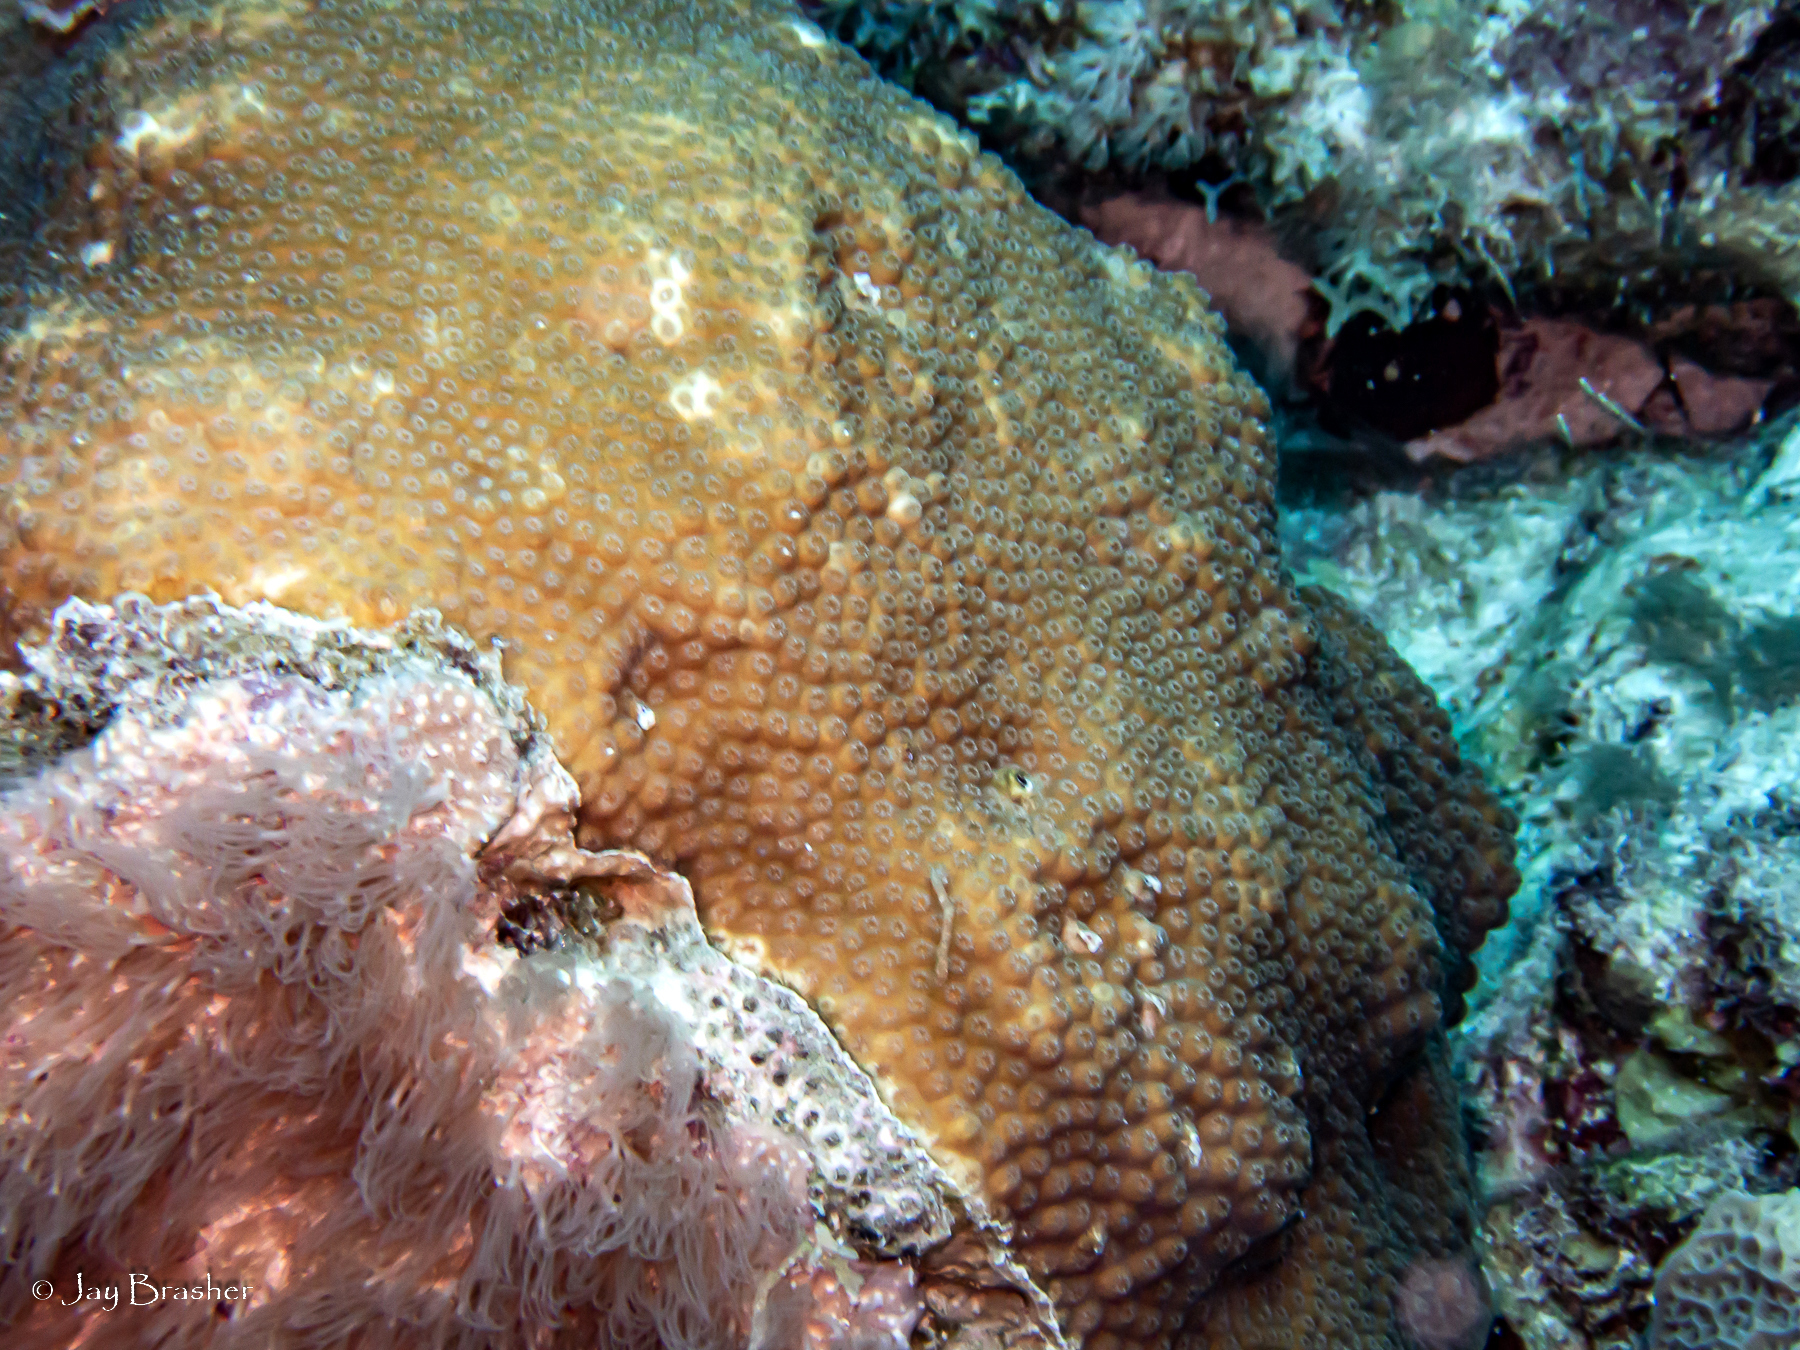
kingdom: Animalia
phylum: Cnidaria
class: Anthozoa
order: Scleractinia
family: Merulinidae
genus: Orbicella
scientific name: Orbicella faveolata
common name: Mountainous star coral
